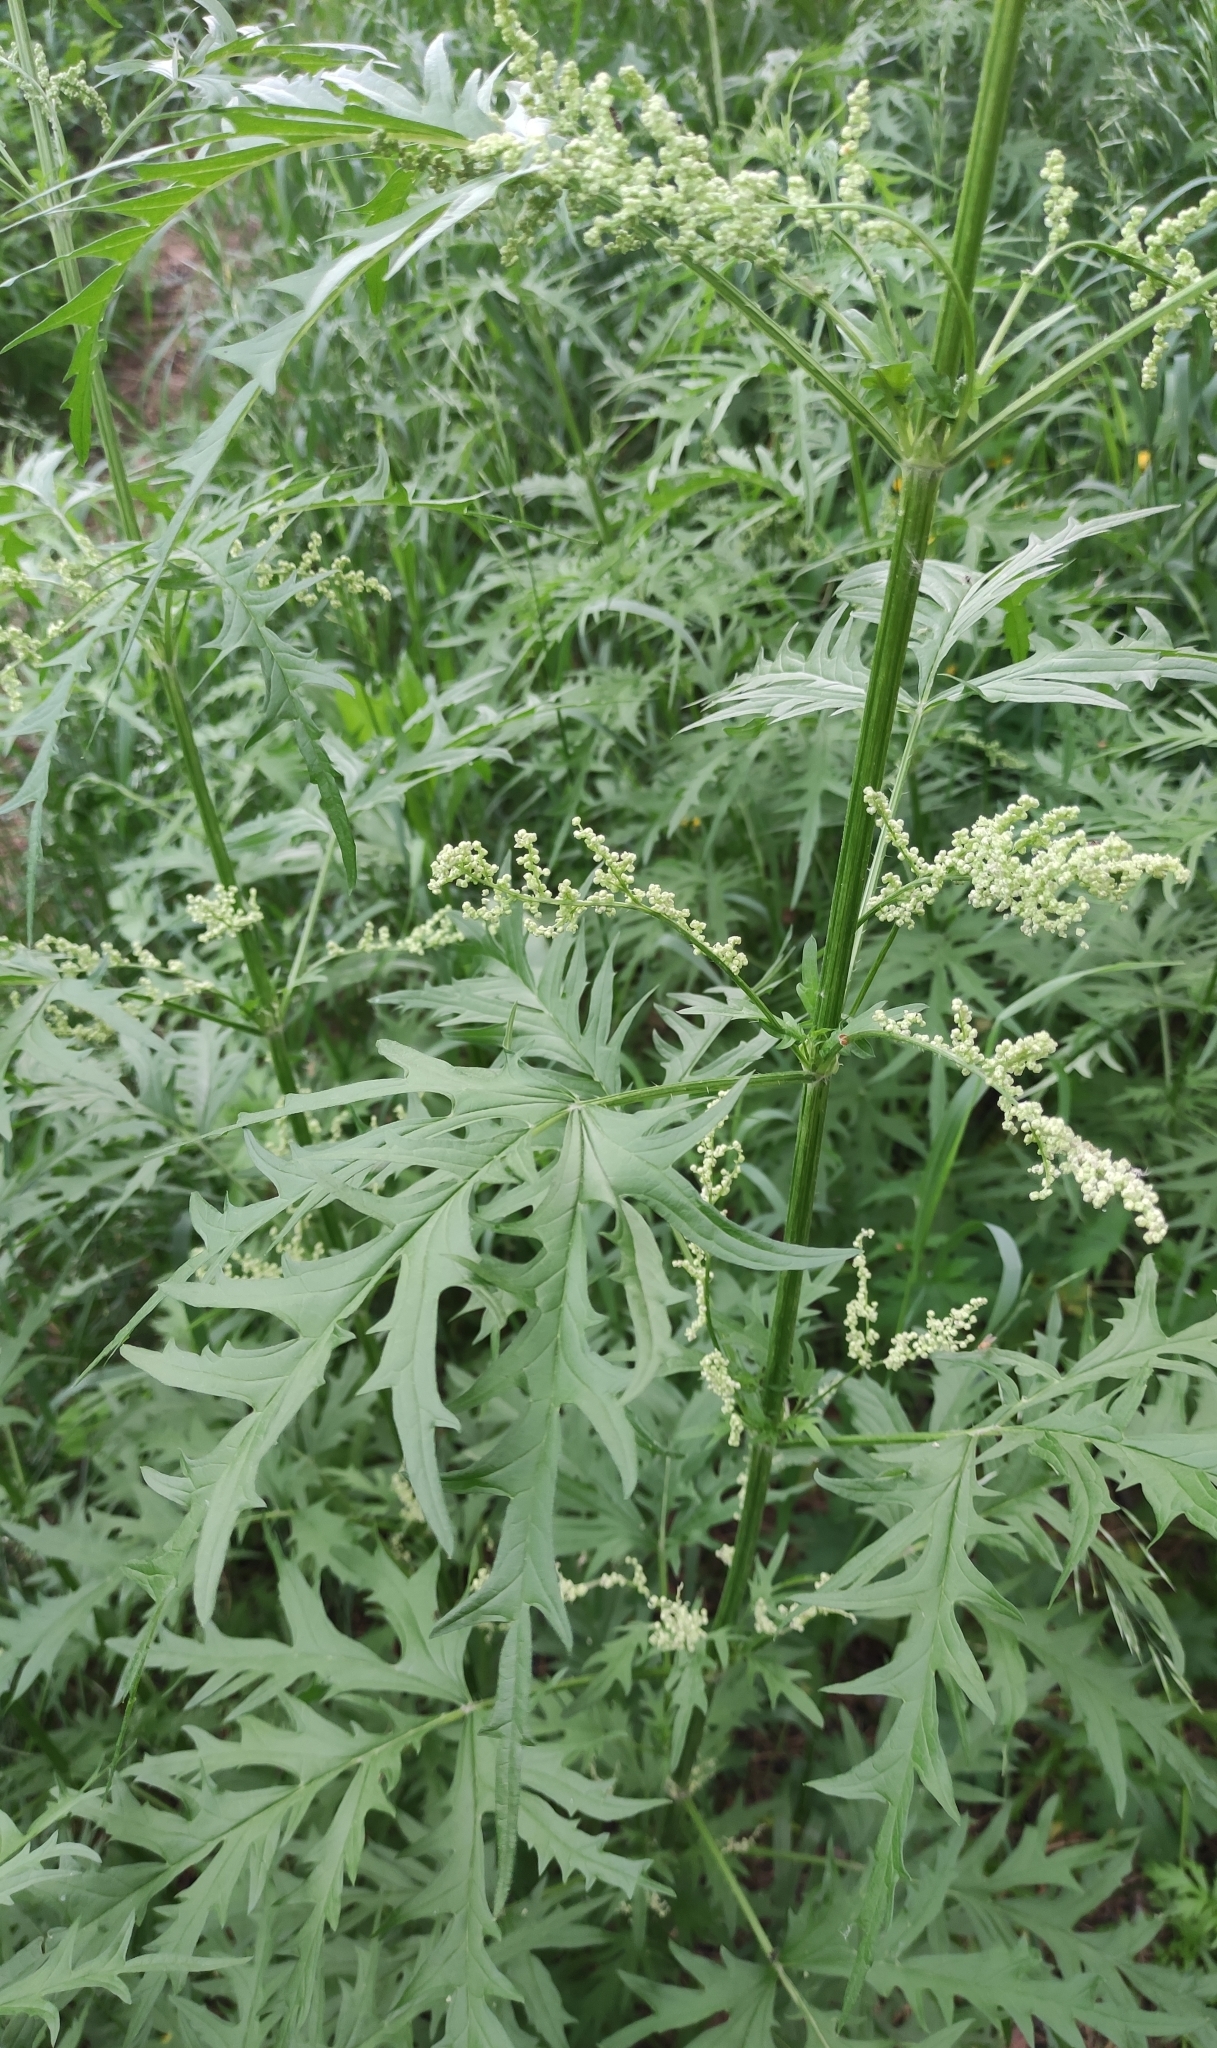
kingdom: Plantae
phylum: Tracheophyta
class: Magnoliopsida
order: Rosales
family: Urticaceae
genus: Urtica
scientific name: Urtica cannabina
